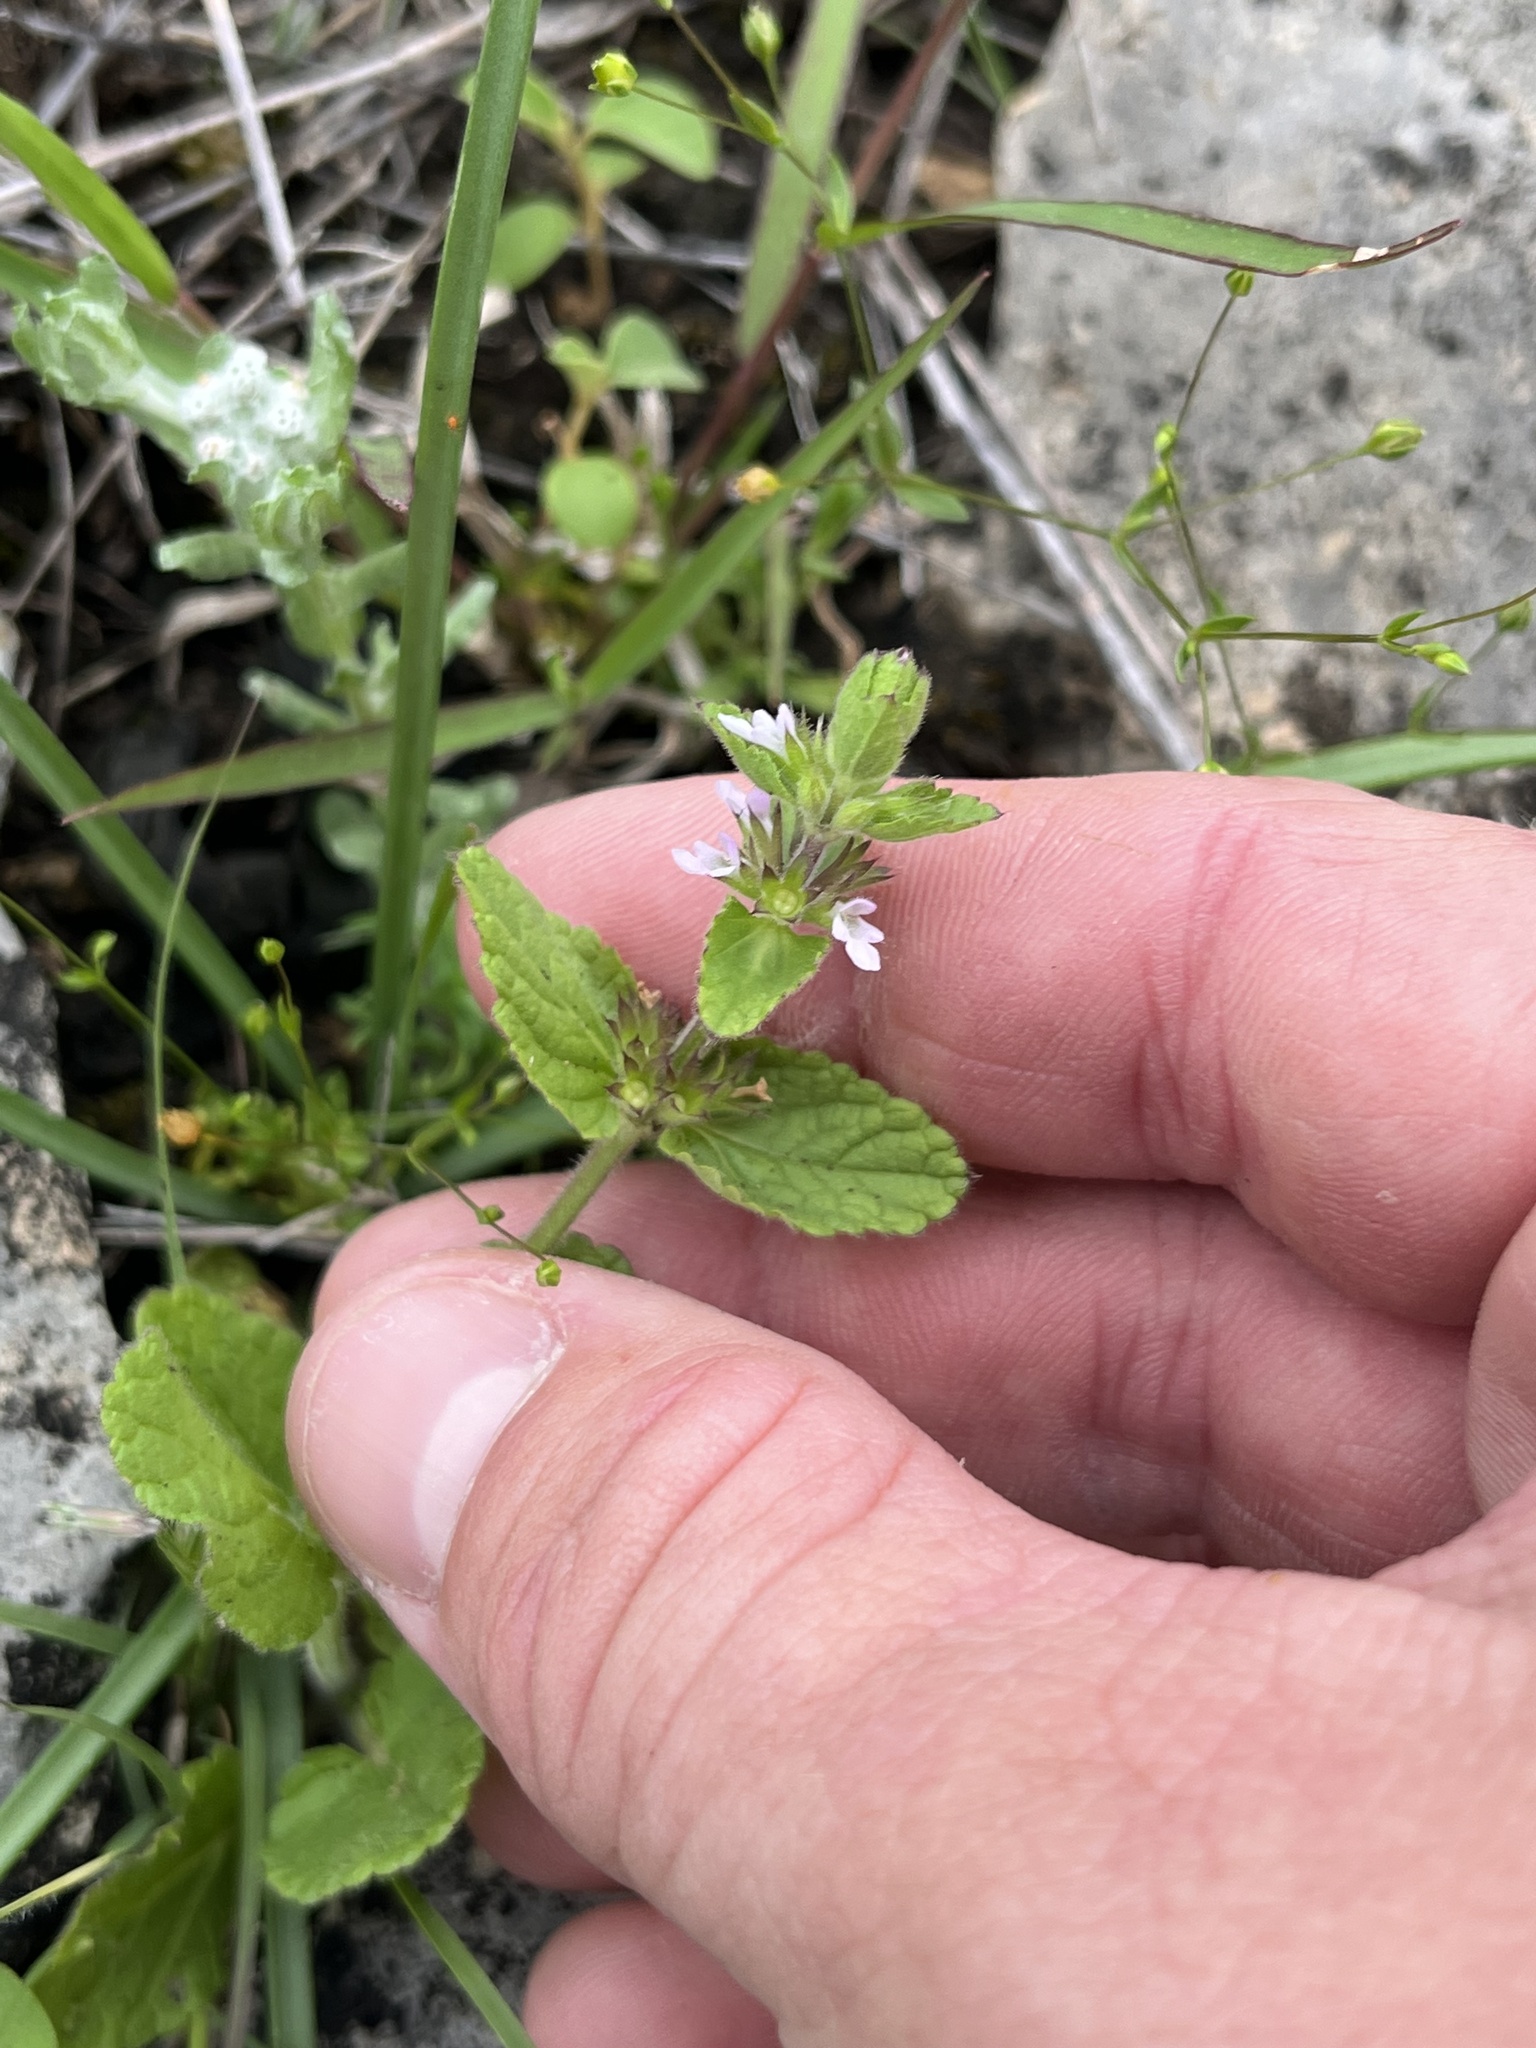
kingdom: Plantae
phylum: Tracheophyta
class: Magnoliopsida
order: Lamiales
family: Lamiaceae
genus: Stachys
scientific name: Stachys
